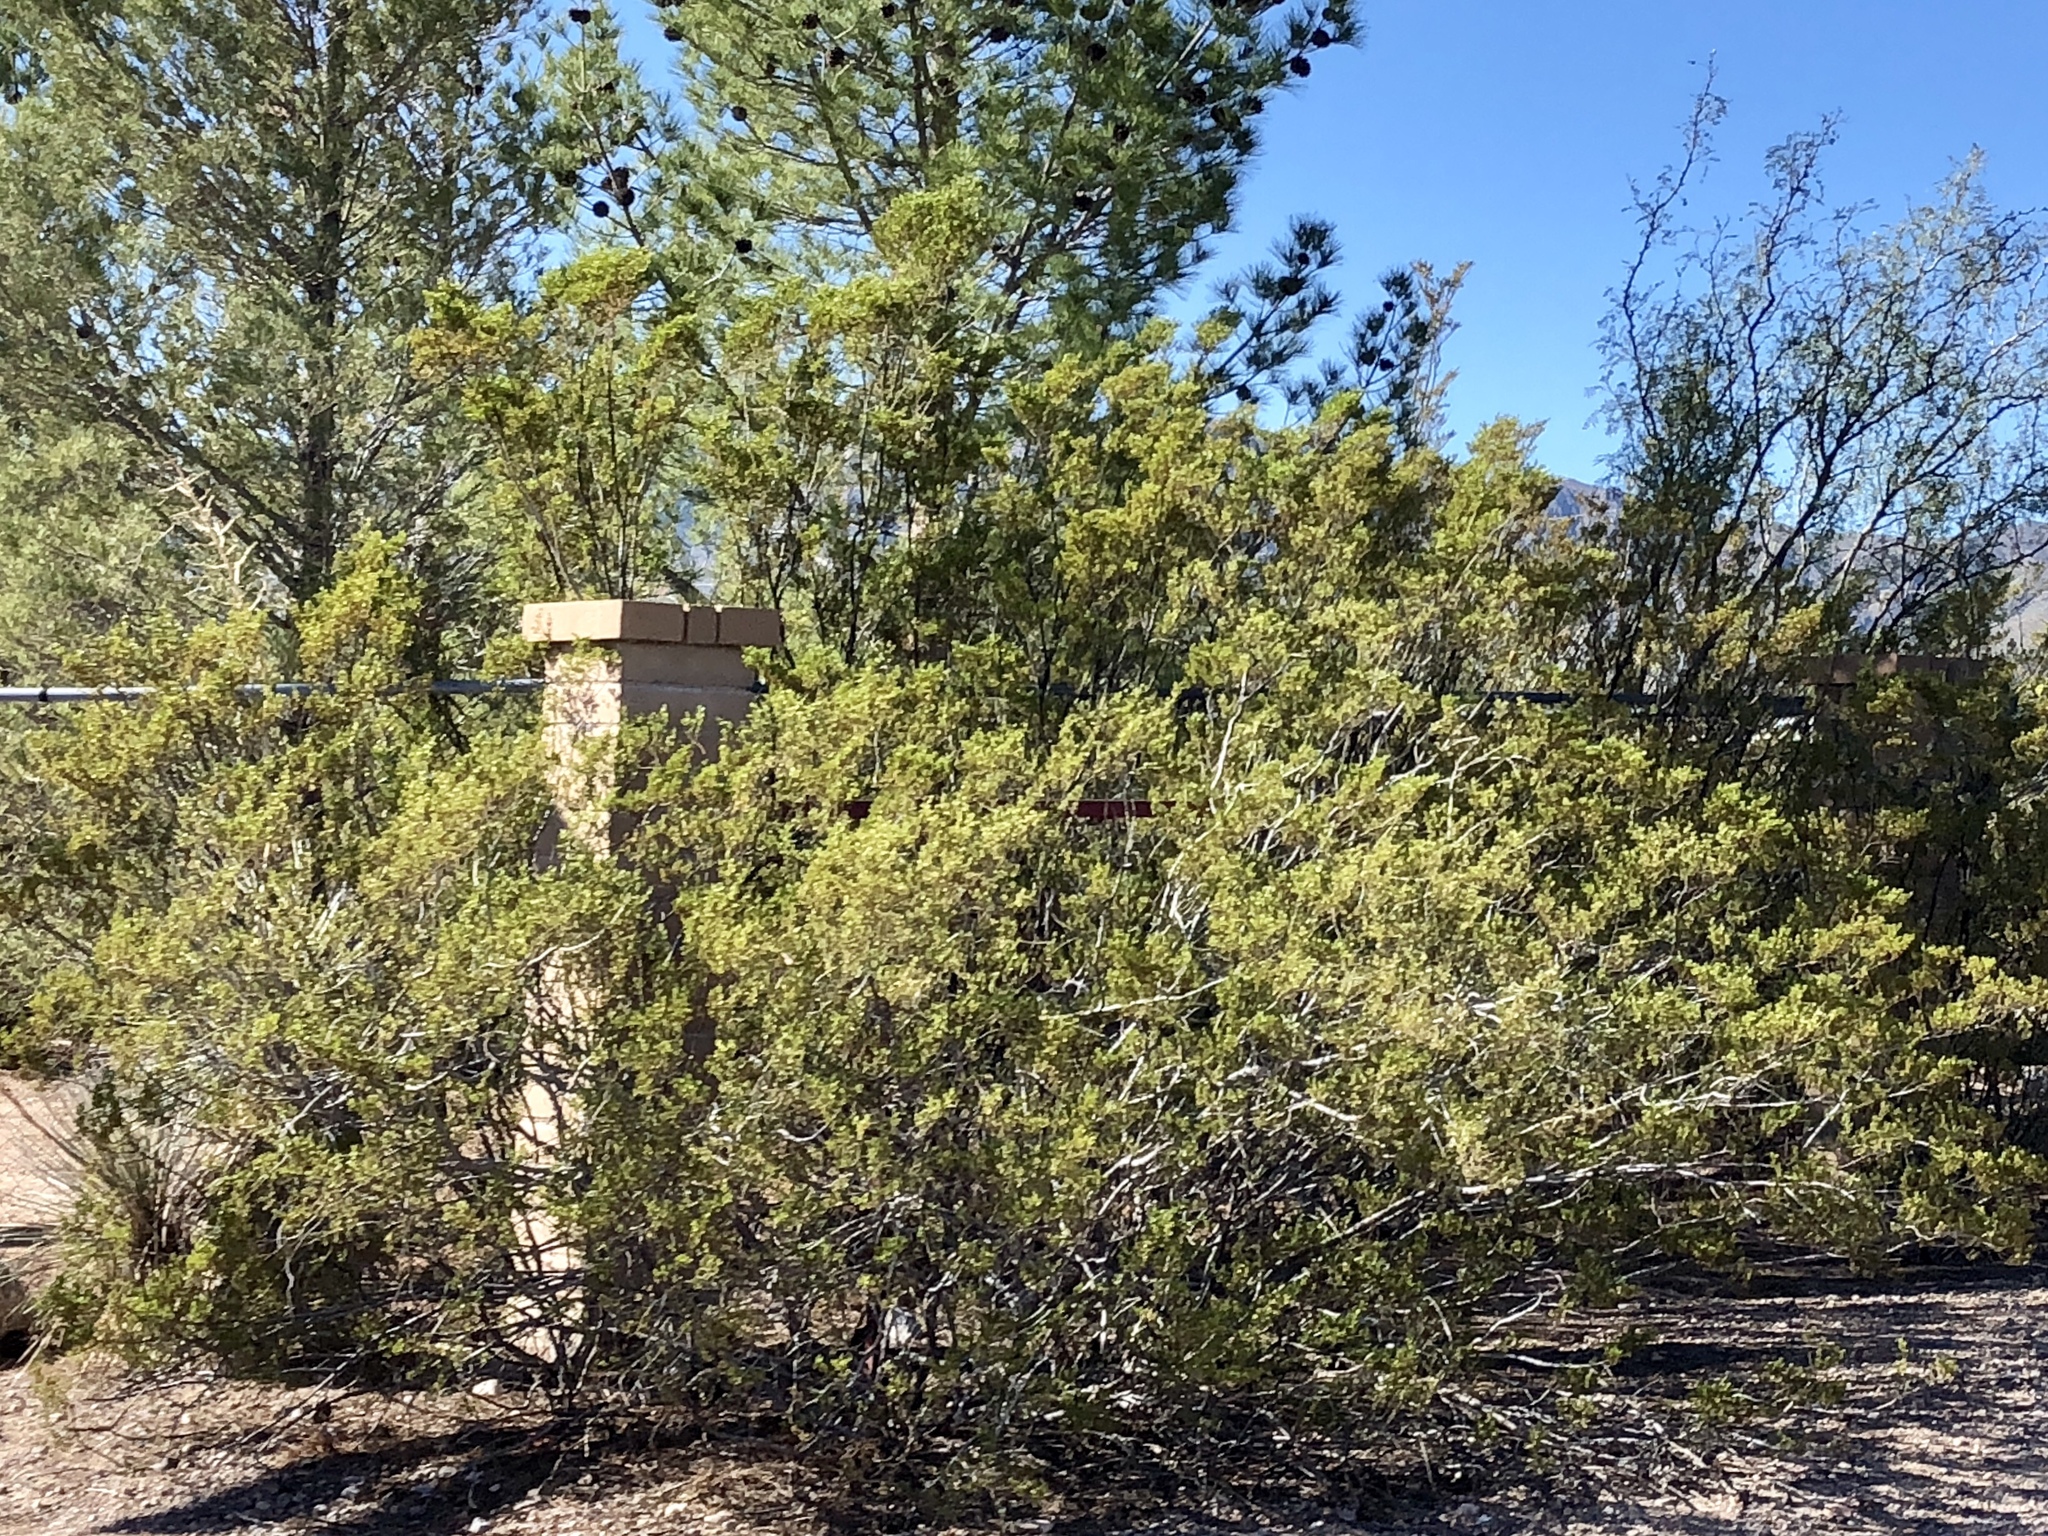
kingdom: Plantae
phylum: Tracheophyta
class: Magnoliopsida
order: Zygophyllales
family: Zygophyllaceae
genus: Larrea
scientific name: Larrea tridentata
